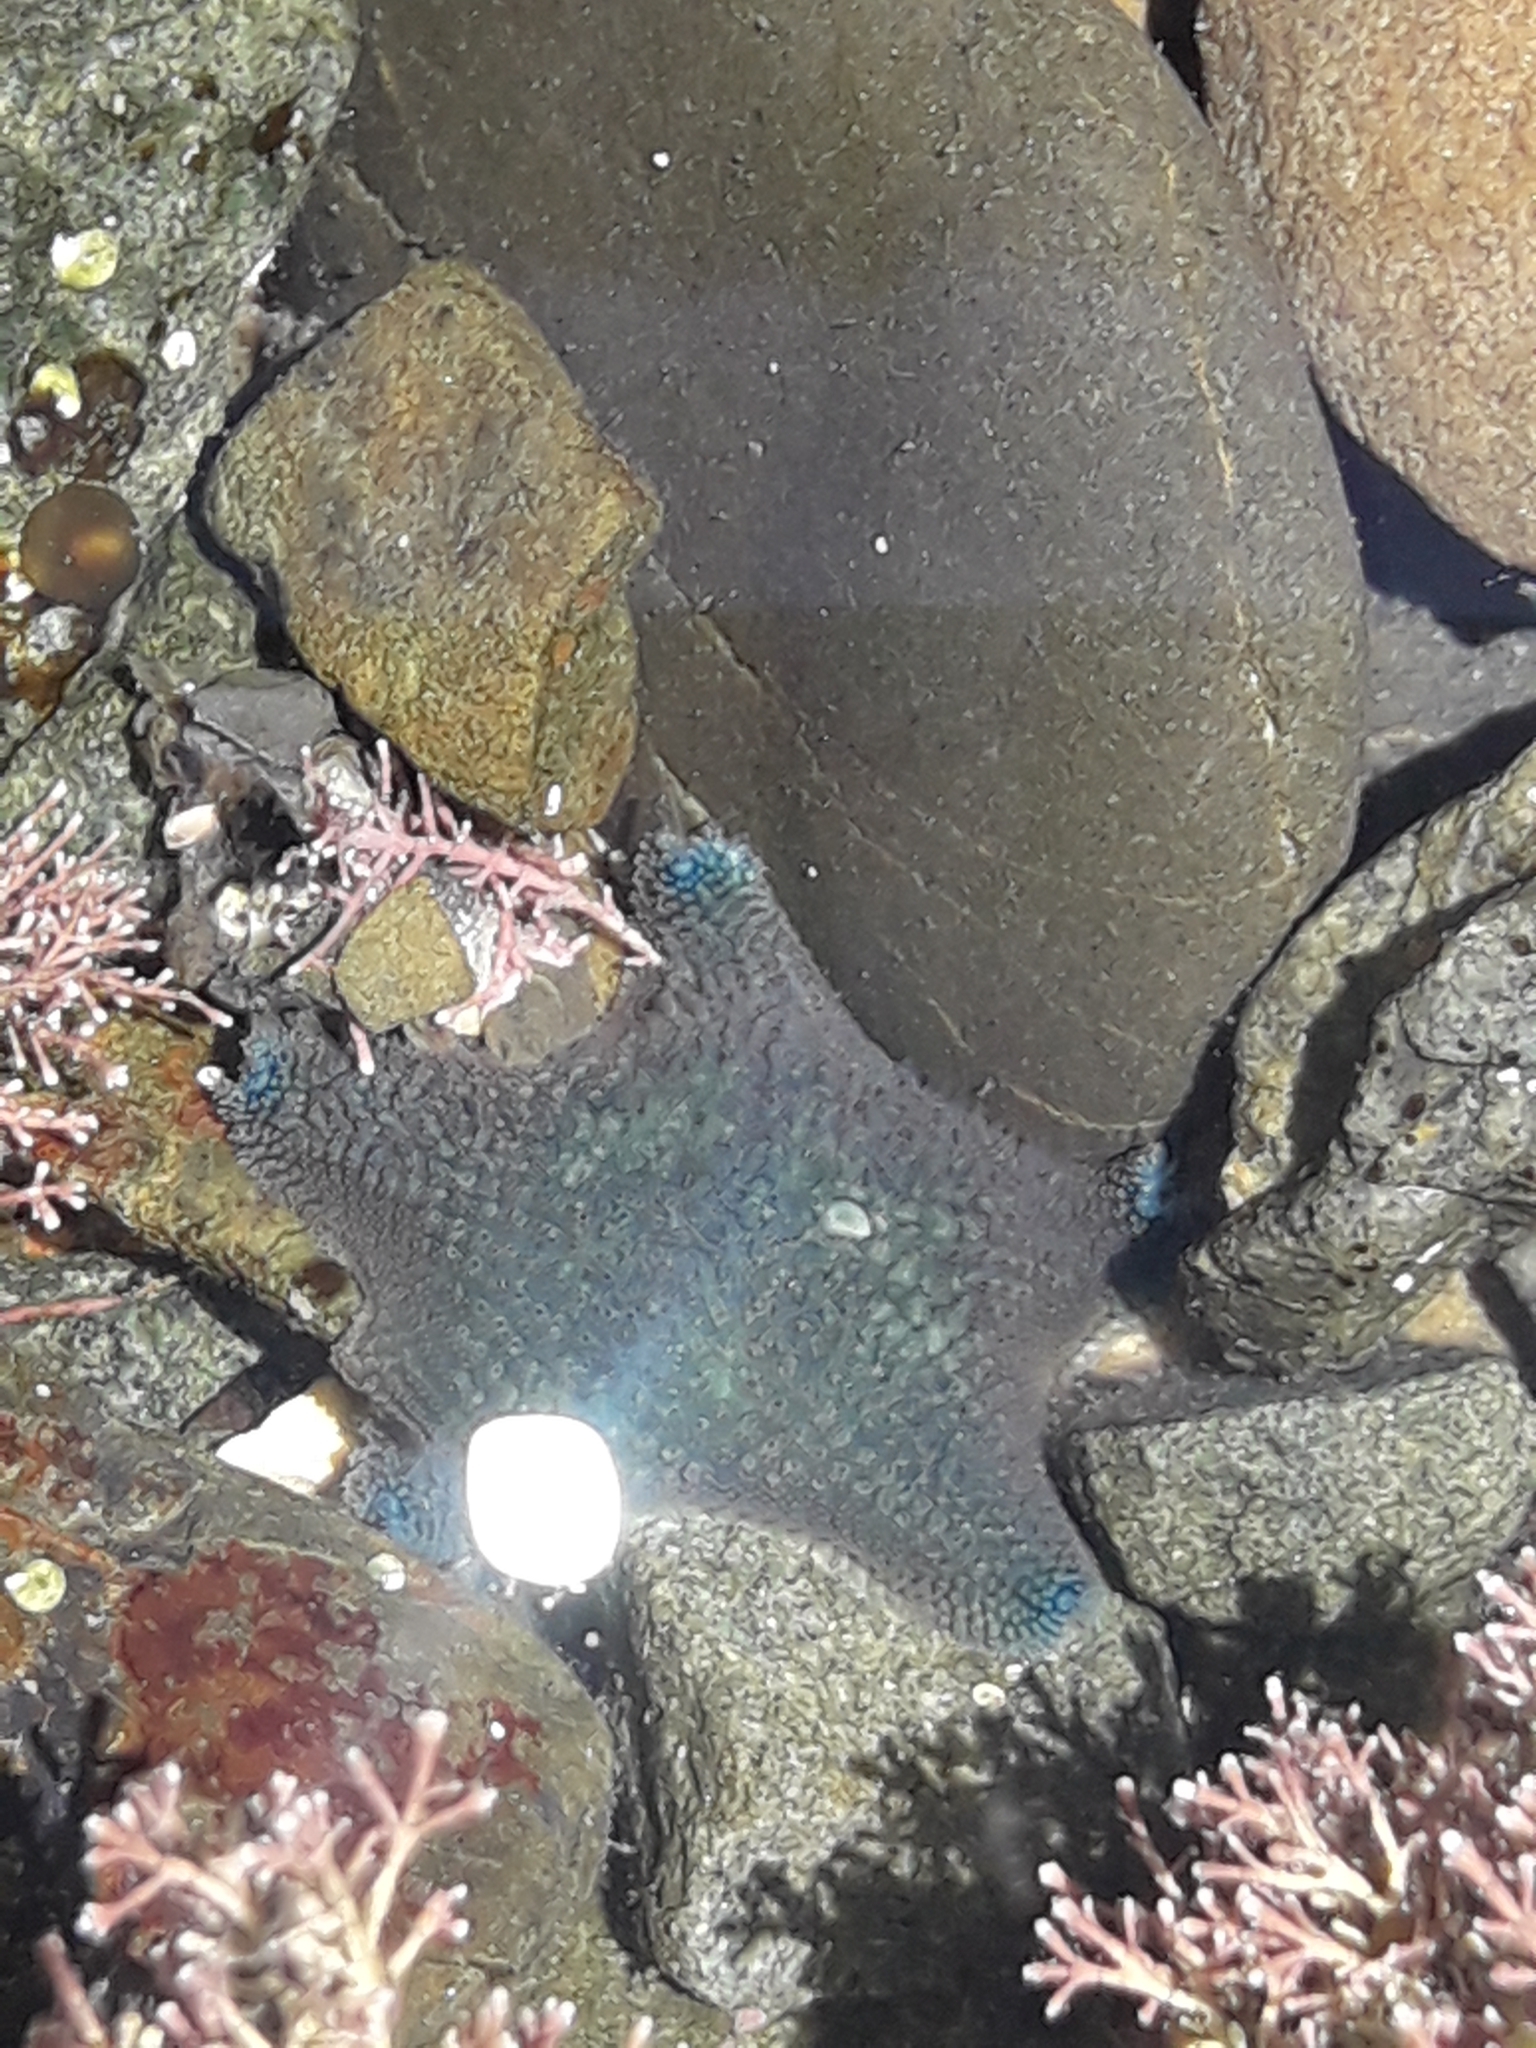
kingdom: Animalia
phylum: Echinodermata
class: Asteroidea
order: Valvatida
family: Asterinidae
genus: Patiriella
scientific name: Patiriella regularis
